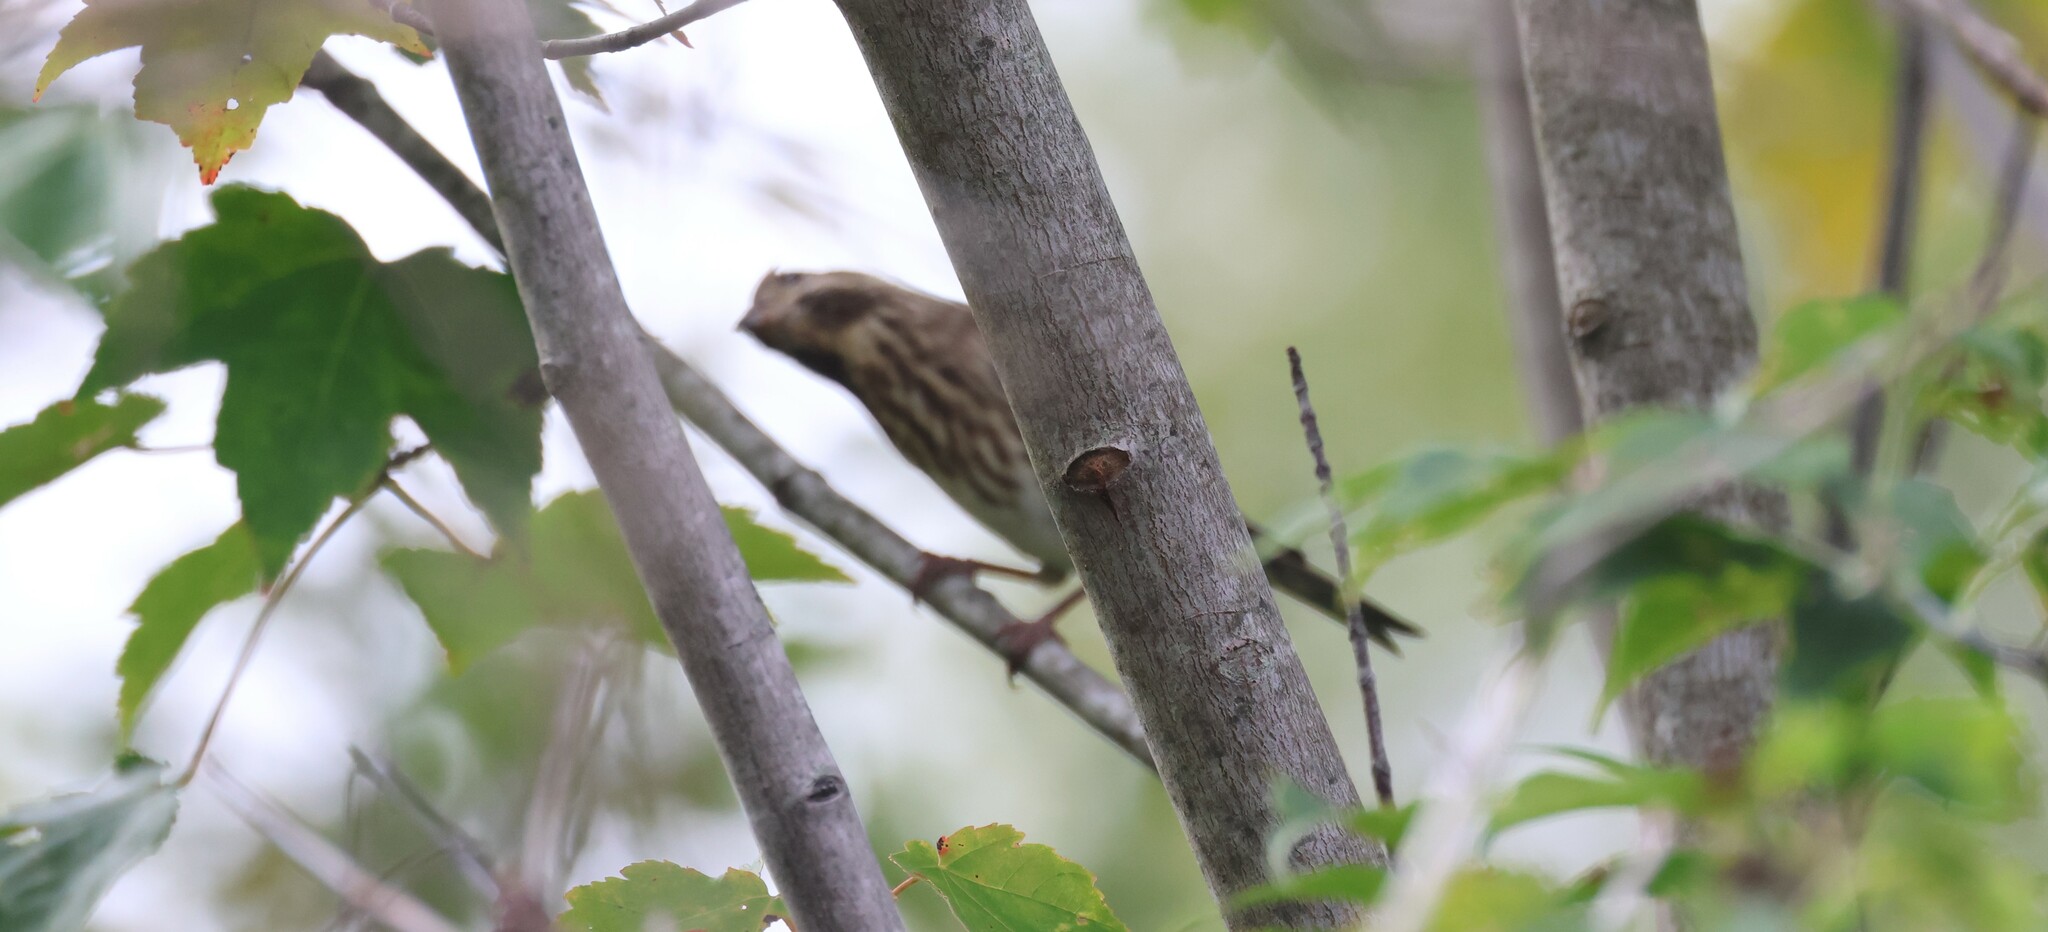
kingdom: Animalia
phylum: Chordata
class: Aves
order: Passeriformes
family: Fringillidae
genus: Haemorhous
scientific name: Haemorhous purpureus
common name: Purple finch
